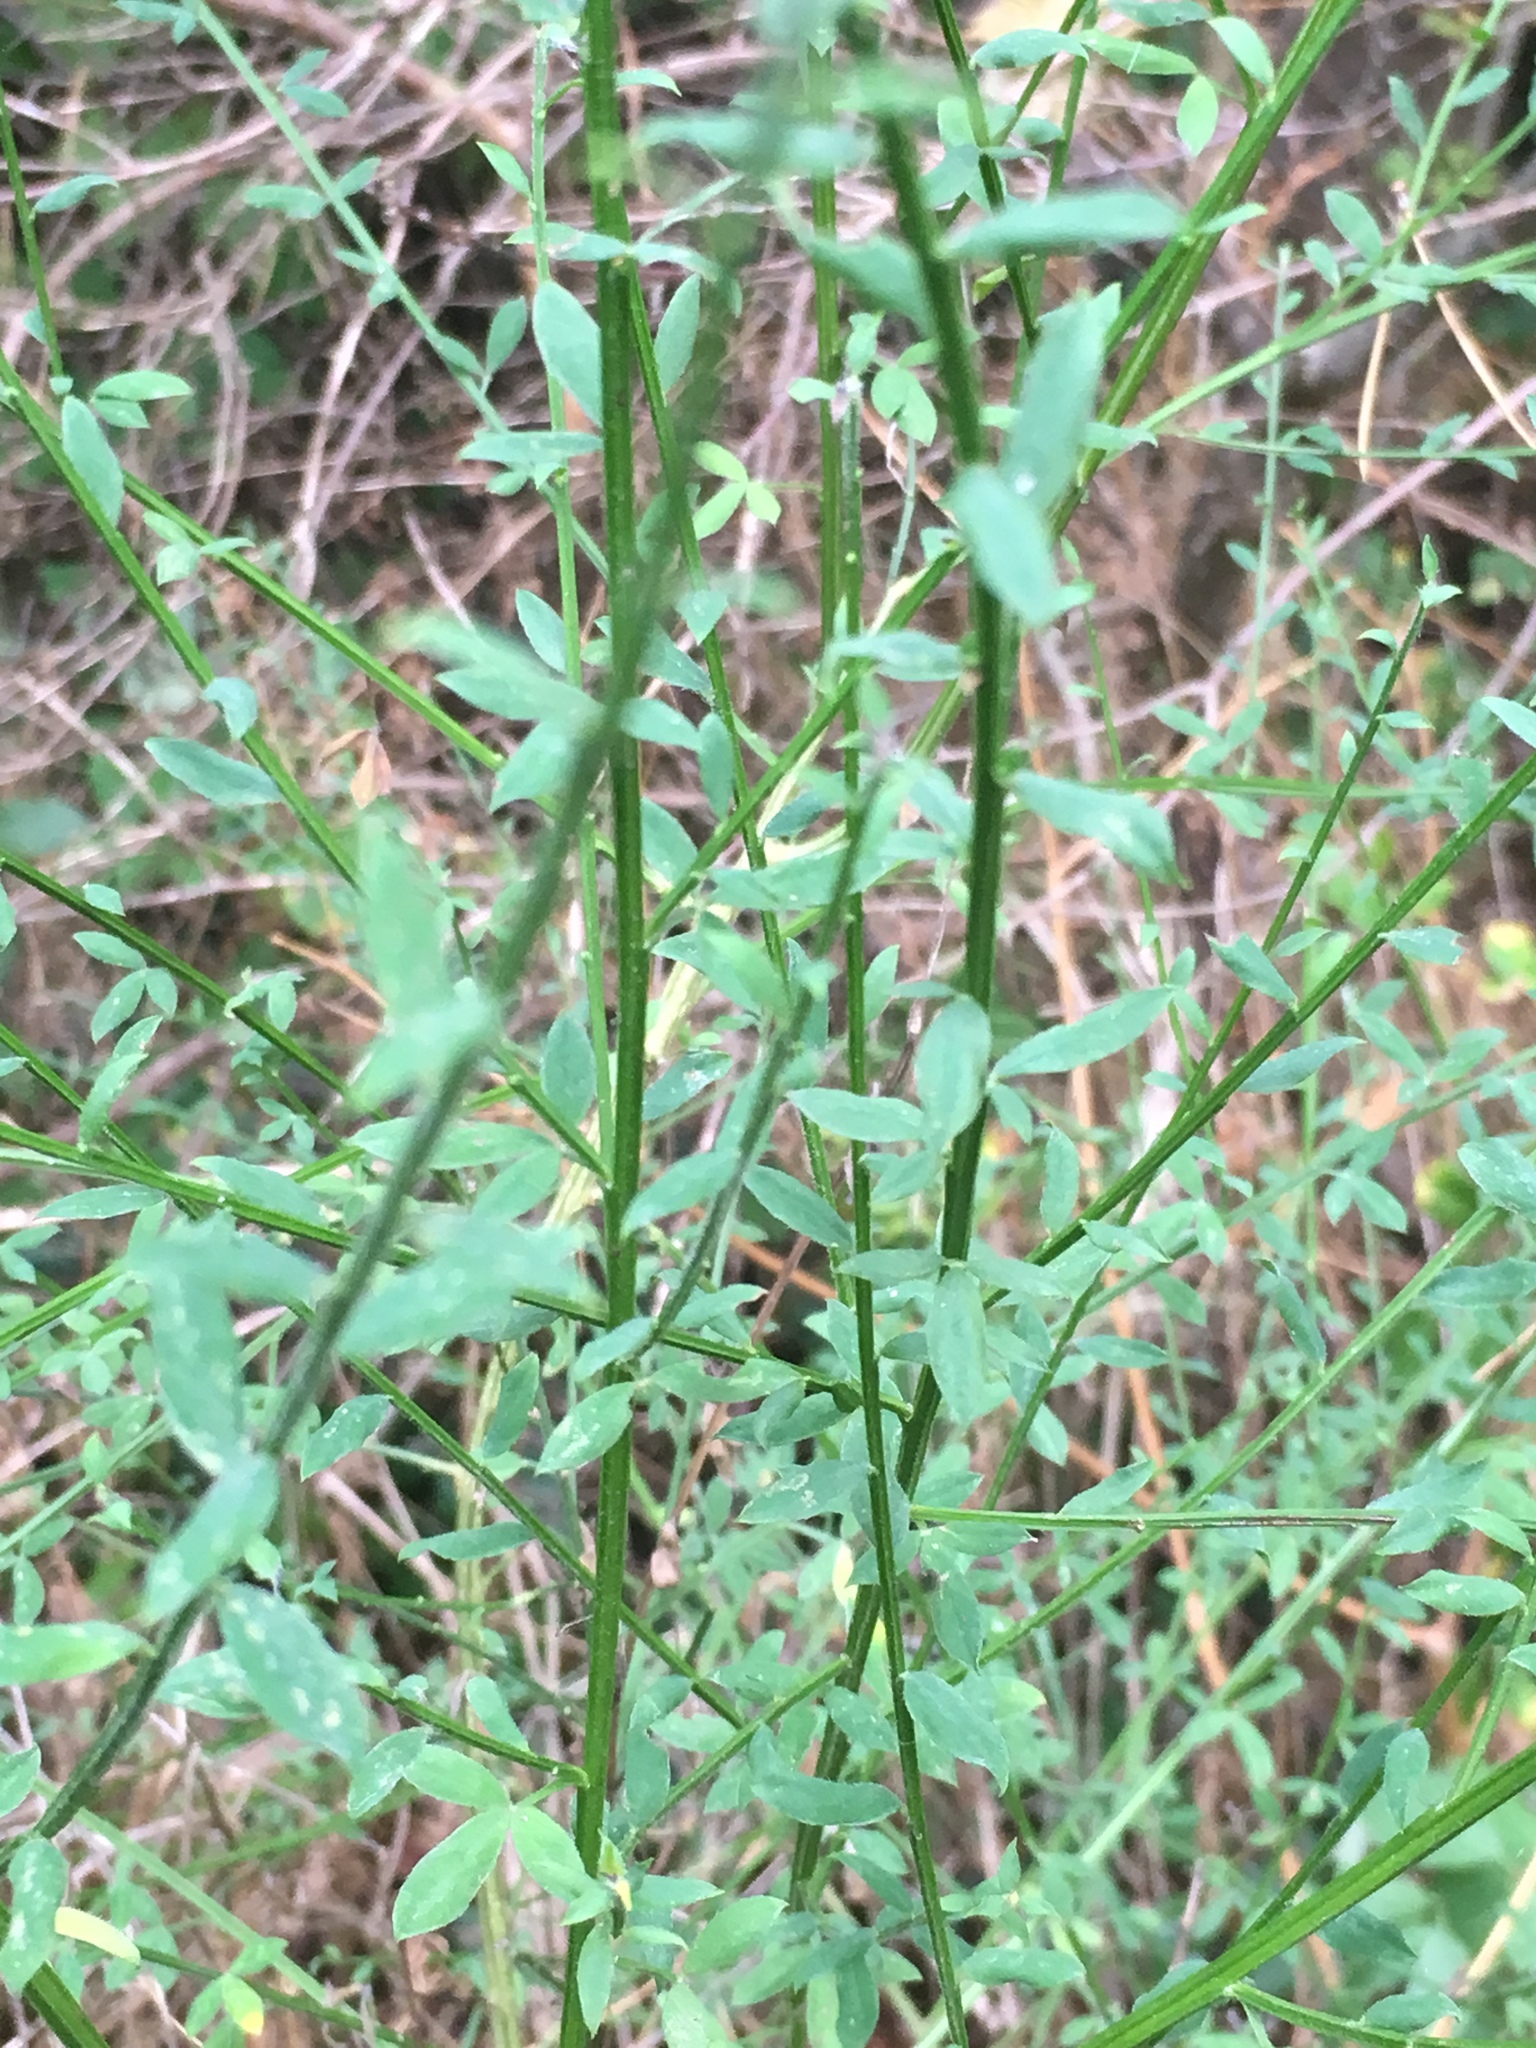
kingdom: Plantae
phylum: Tracheophyta
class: Magnoliopsida
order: Fabales
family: Fabaceae
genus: Cytisus
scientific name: Cytisus scoparius
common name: Scotch broom
